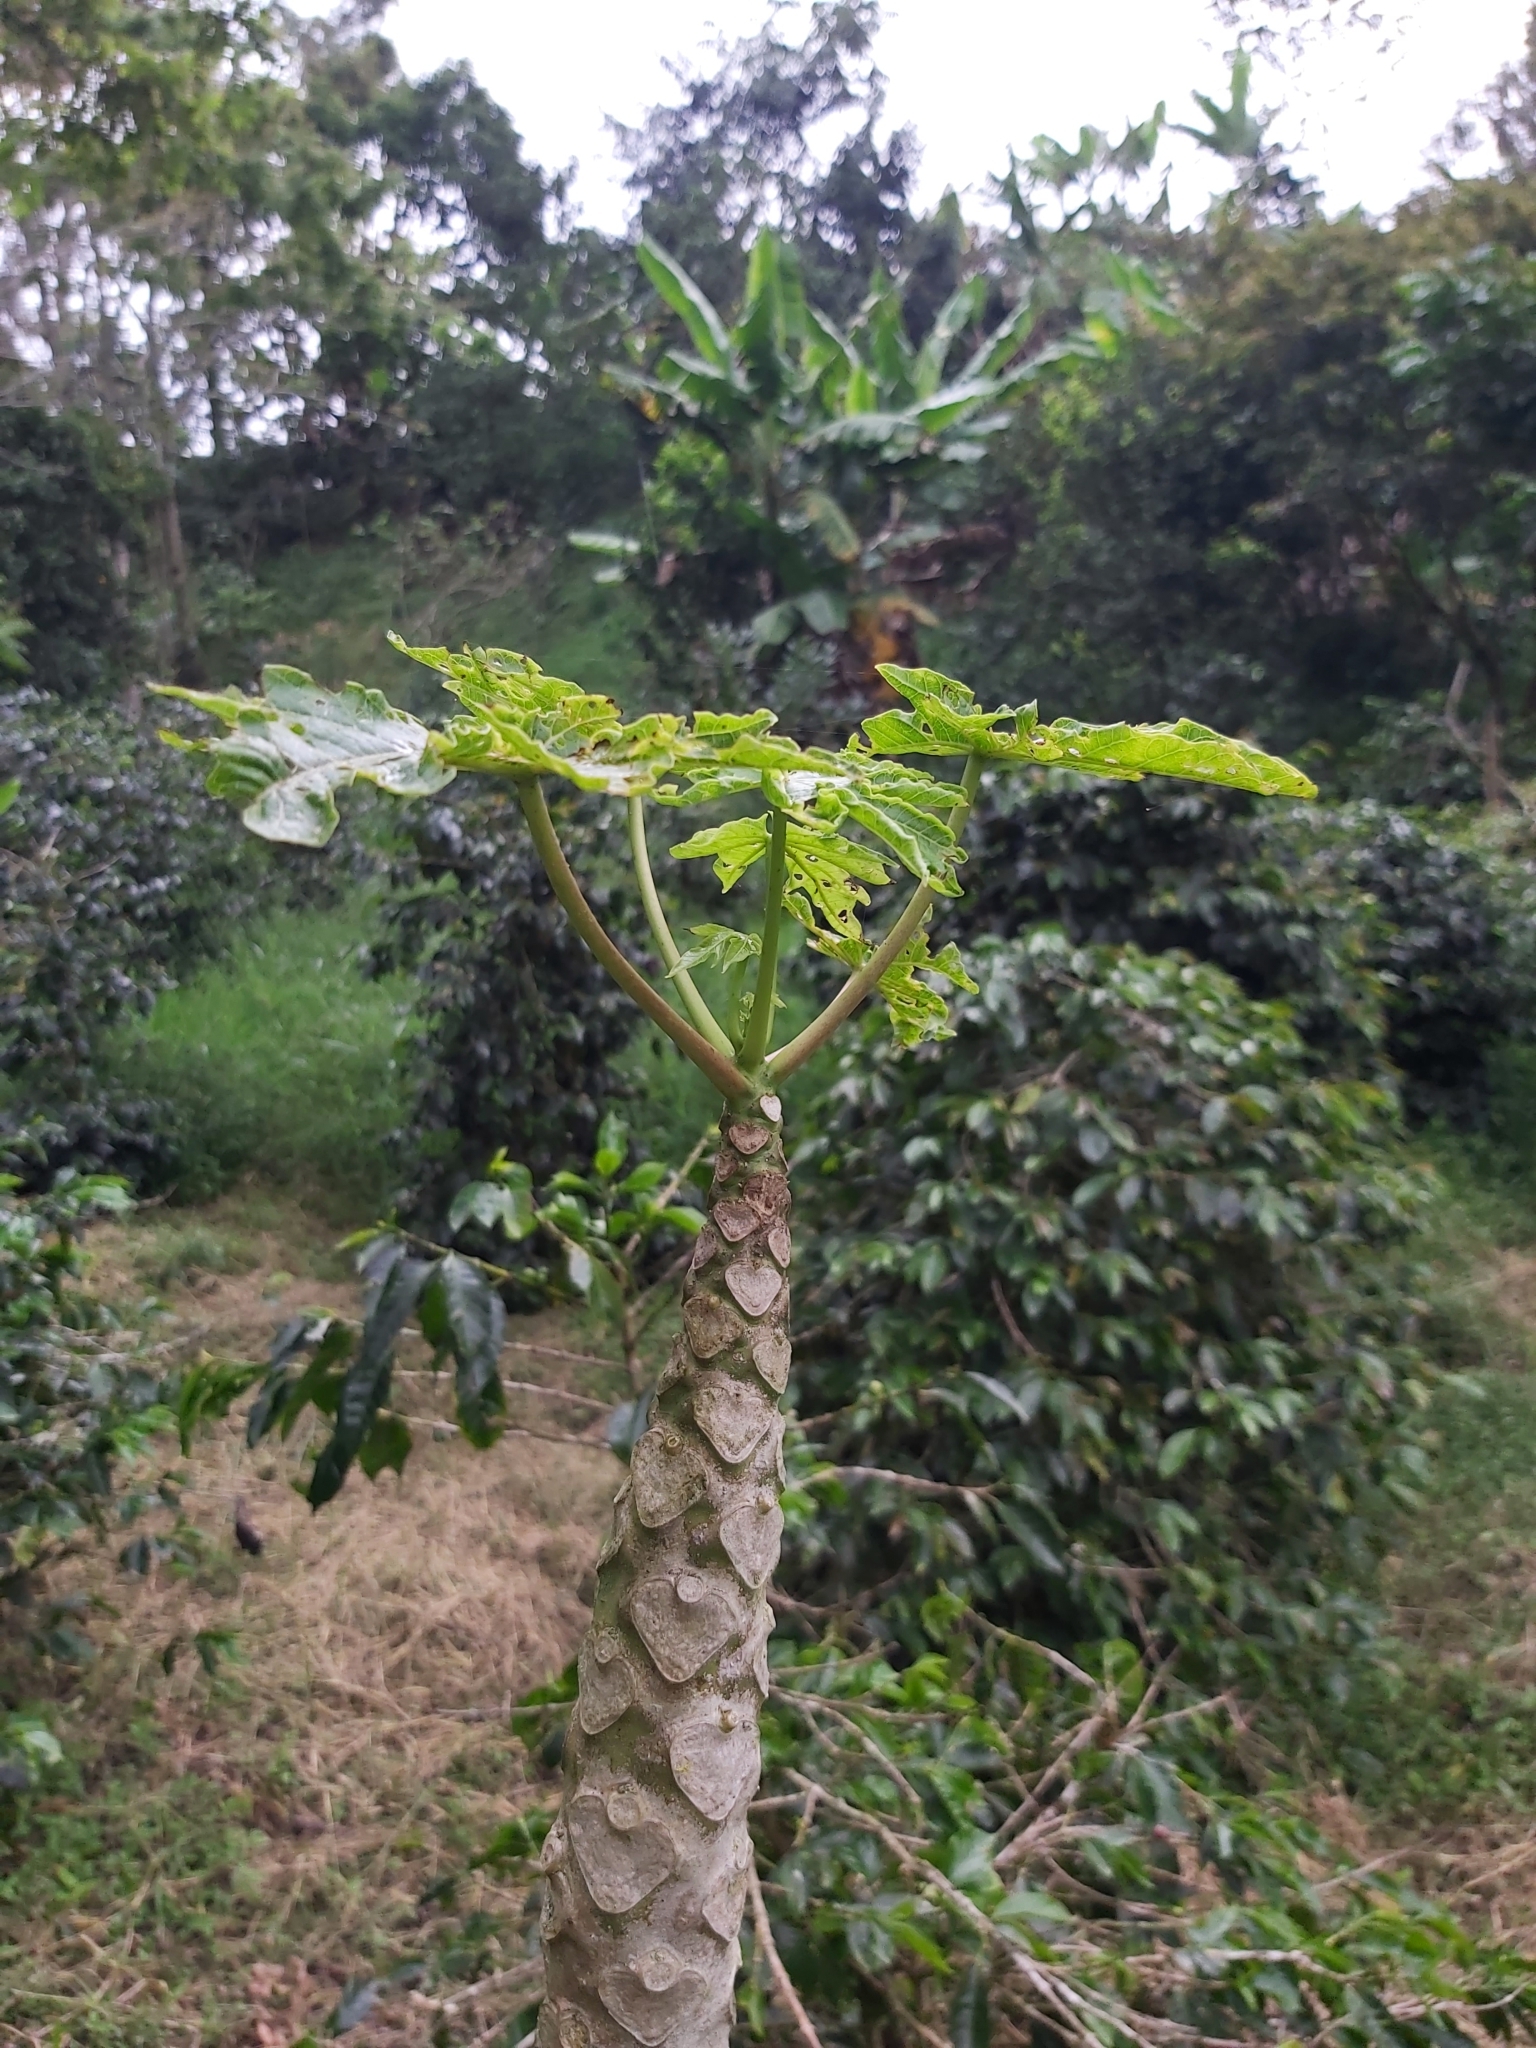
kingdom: Plantae
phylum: Tracheophyta
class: Magnoliopsida
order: Brassicales
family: Caricaceae
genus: Carica
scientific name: Carica papaya
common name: Papaya
